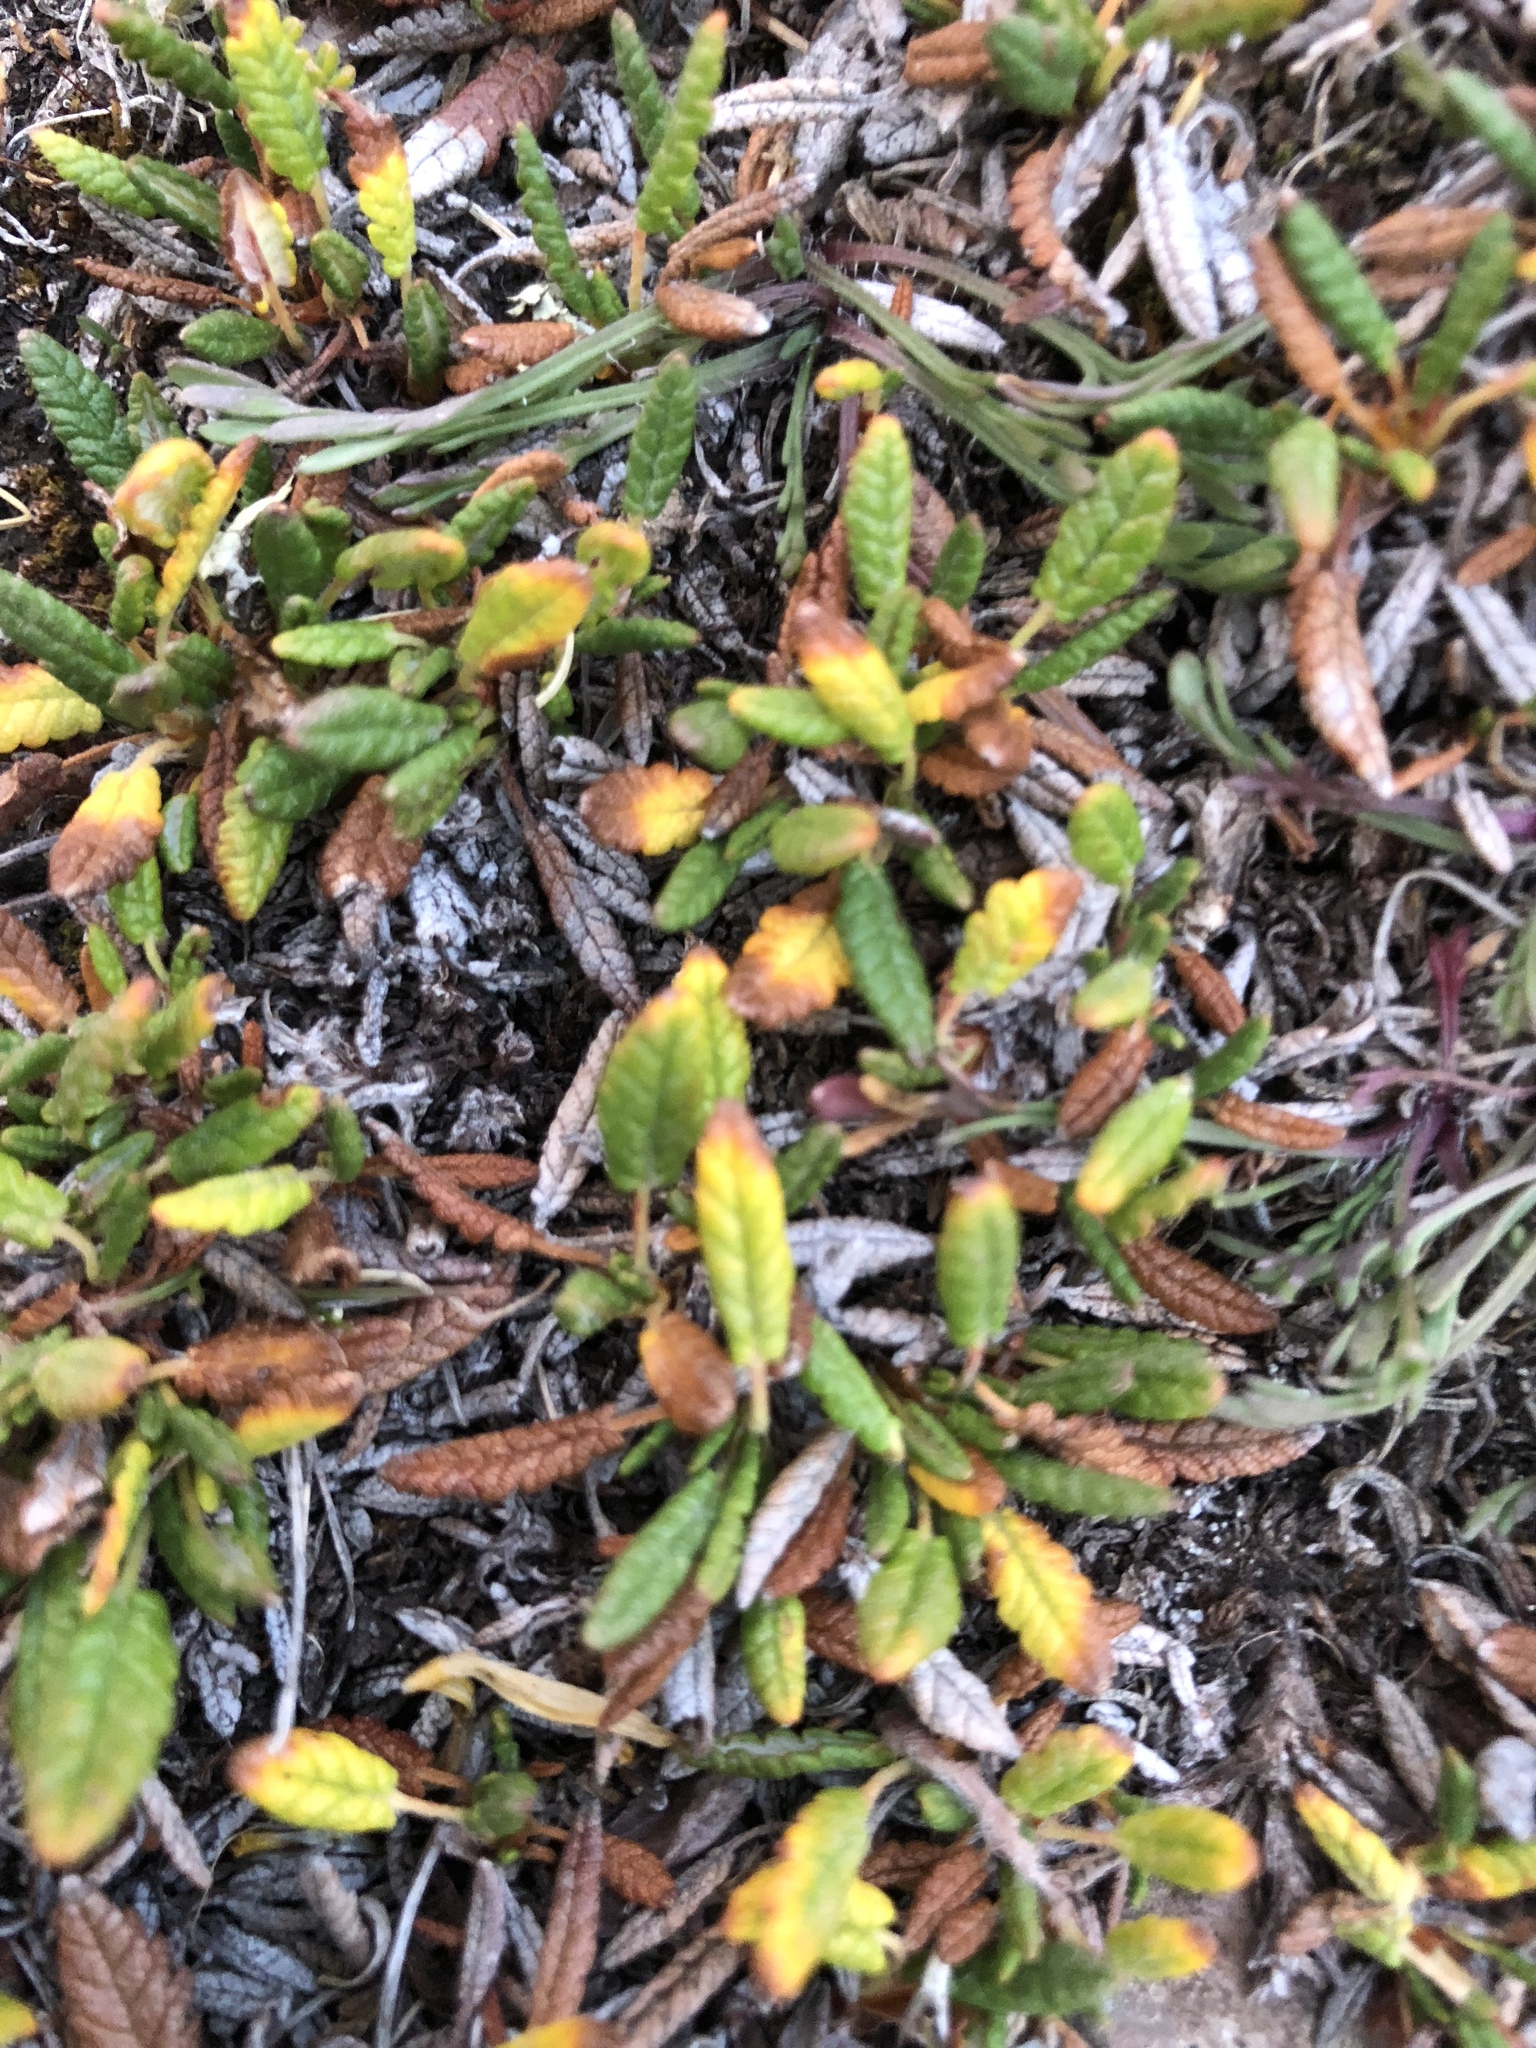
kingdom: Plantae
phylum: Tracheophyta
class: Magnoliopsida
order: Rosales
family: Rosaceae
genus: Dryas
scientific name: Dryas octopetala
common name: Eight-petal mountain-avens
